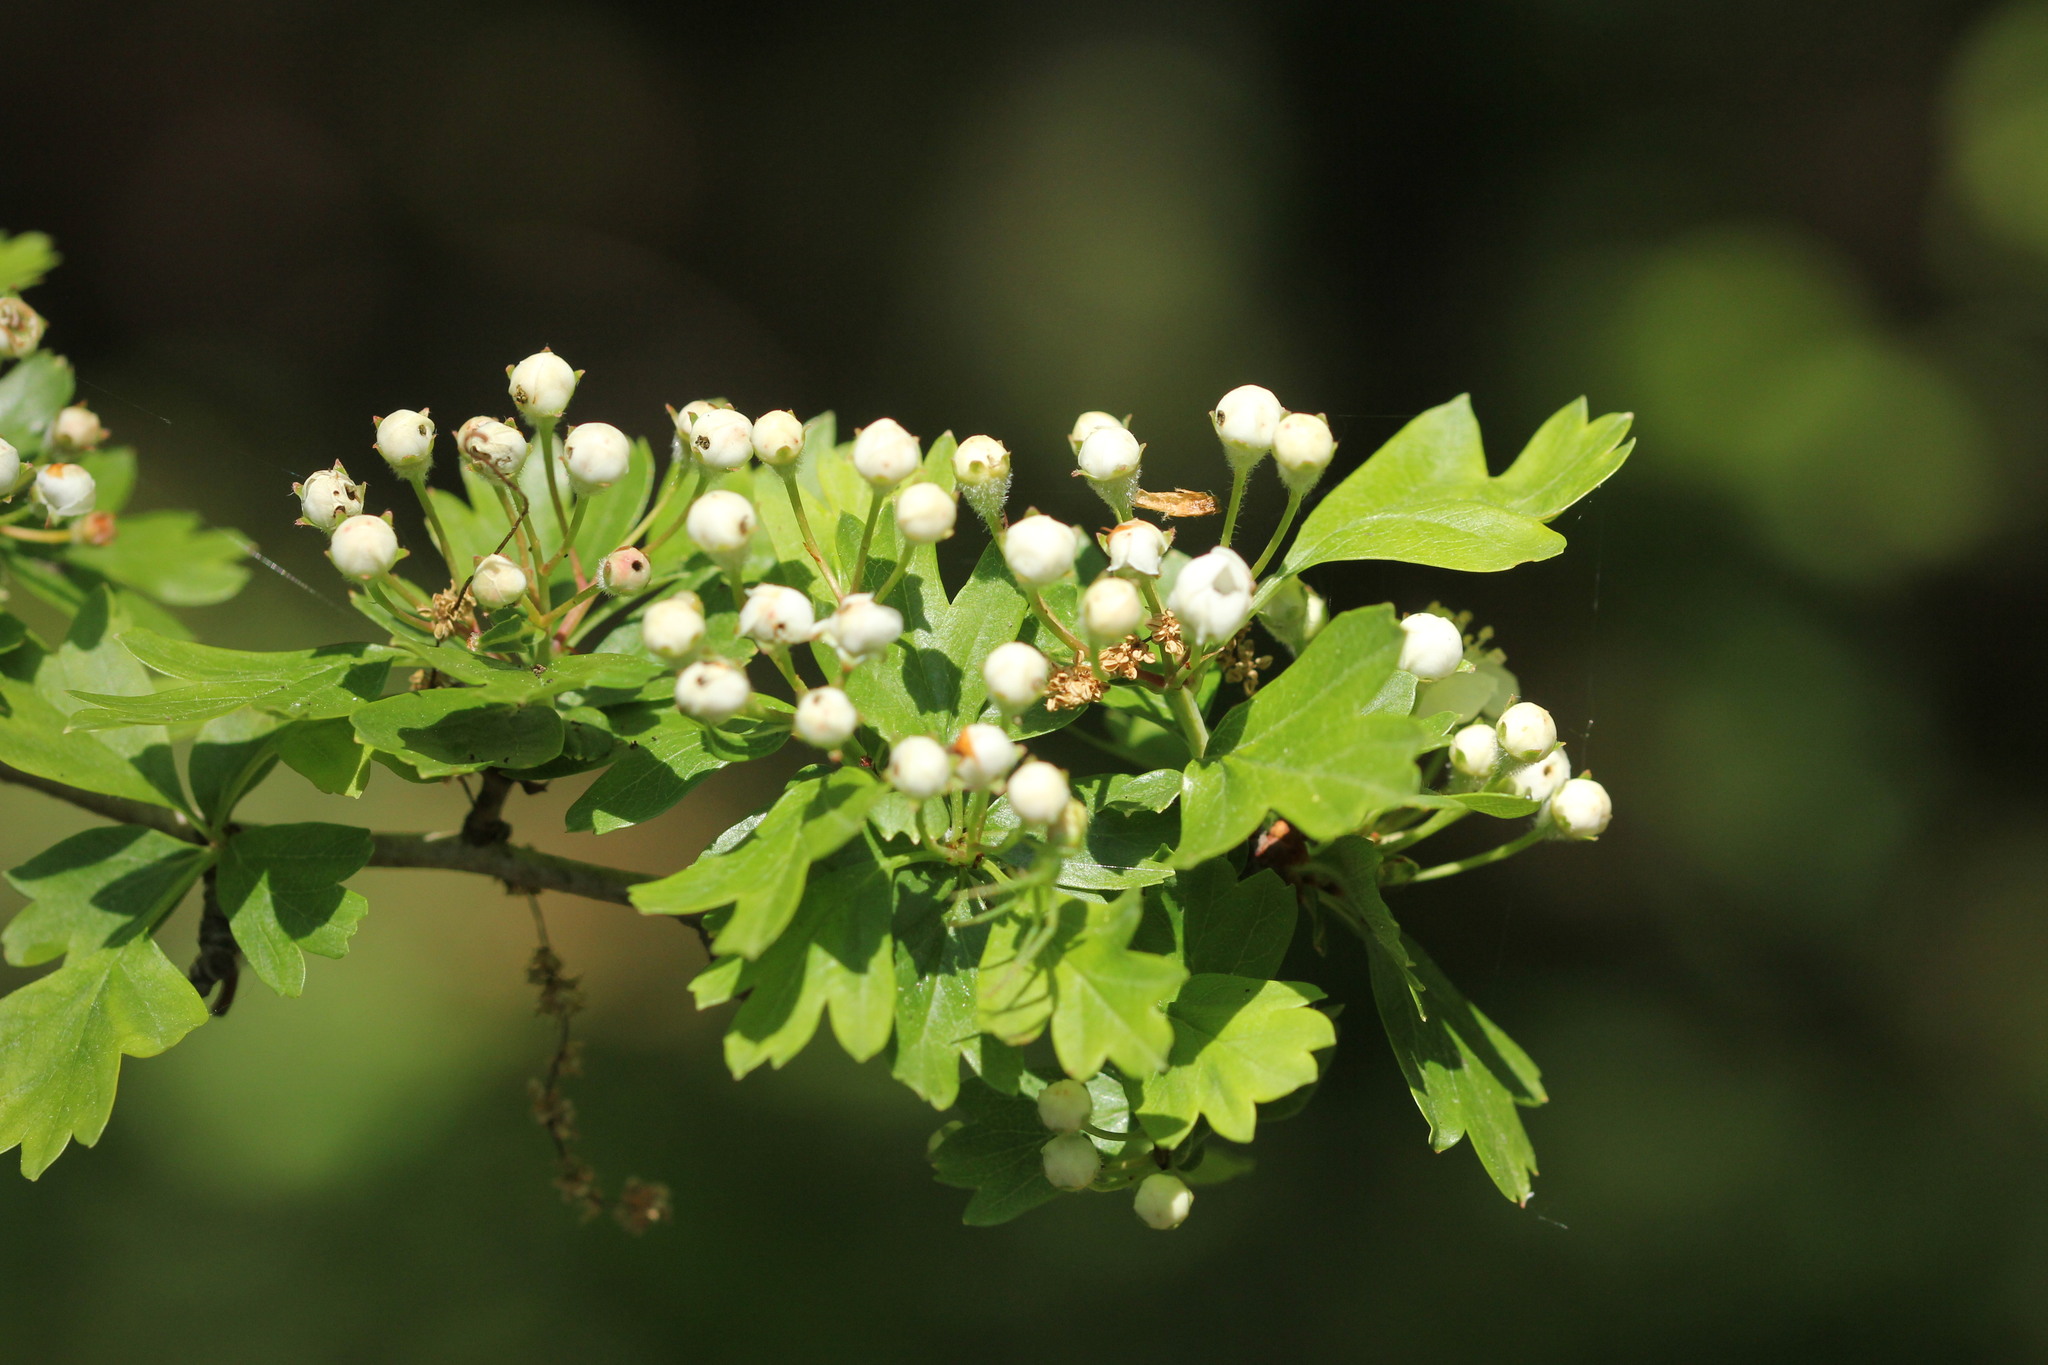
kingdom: Plantae
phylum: Tracheophyta
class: Magnoliopsida
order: Rosales
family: Rosaceae
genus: Crataegus
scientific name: Crataegus monogyna
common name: Hawthorn
